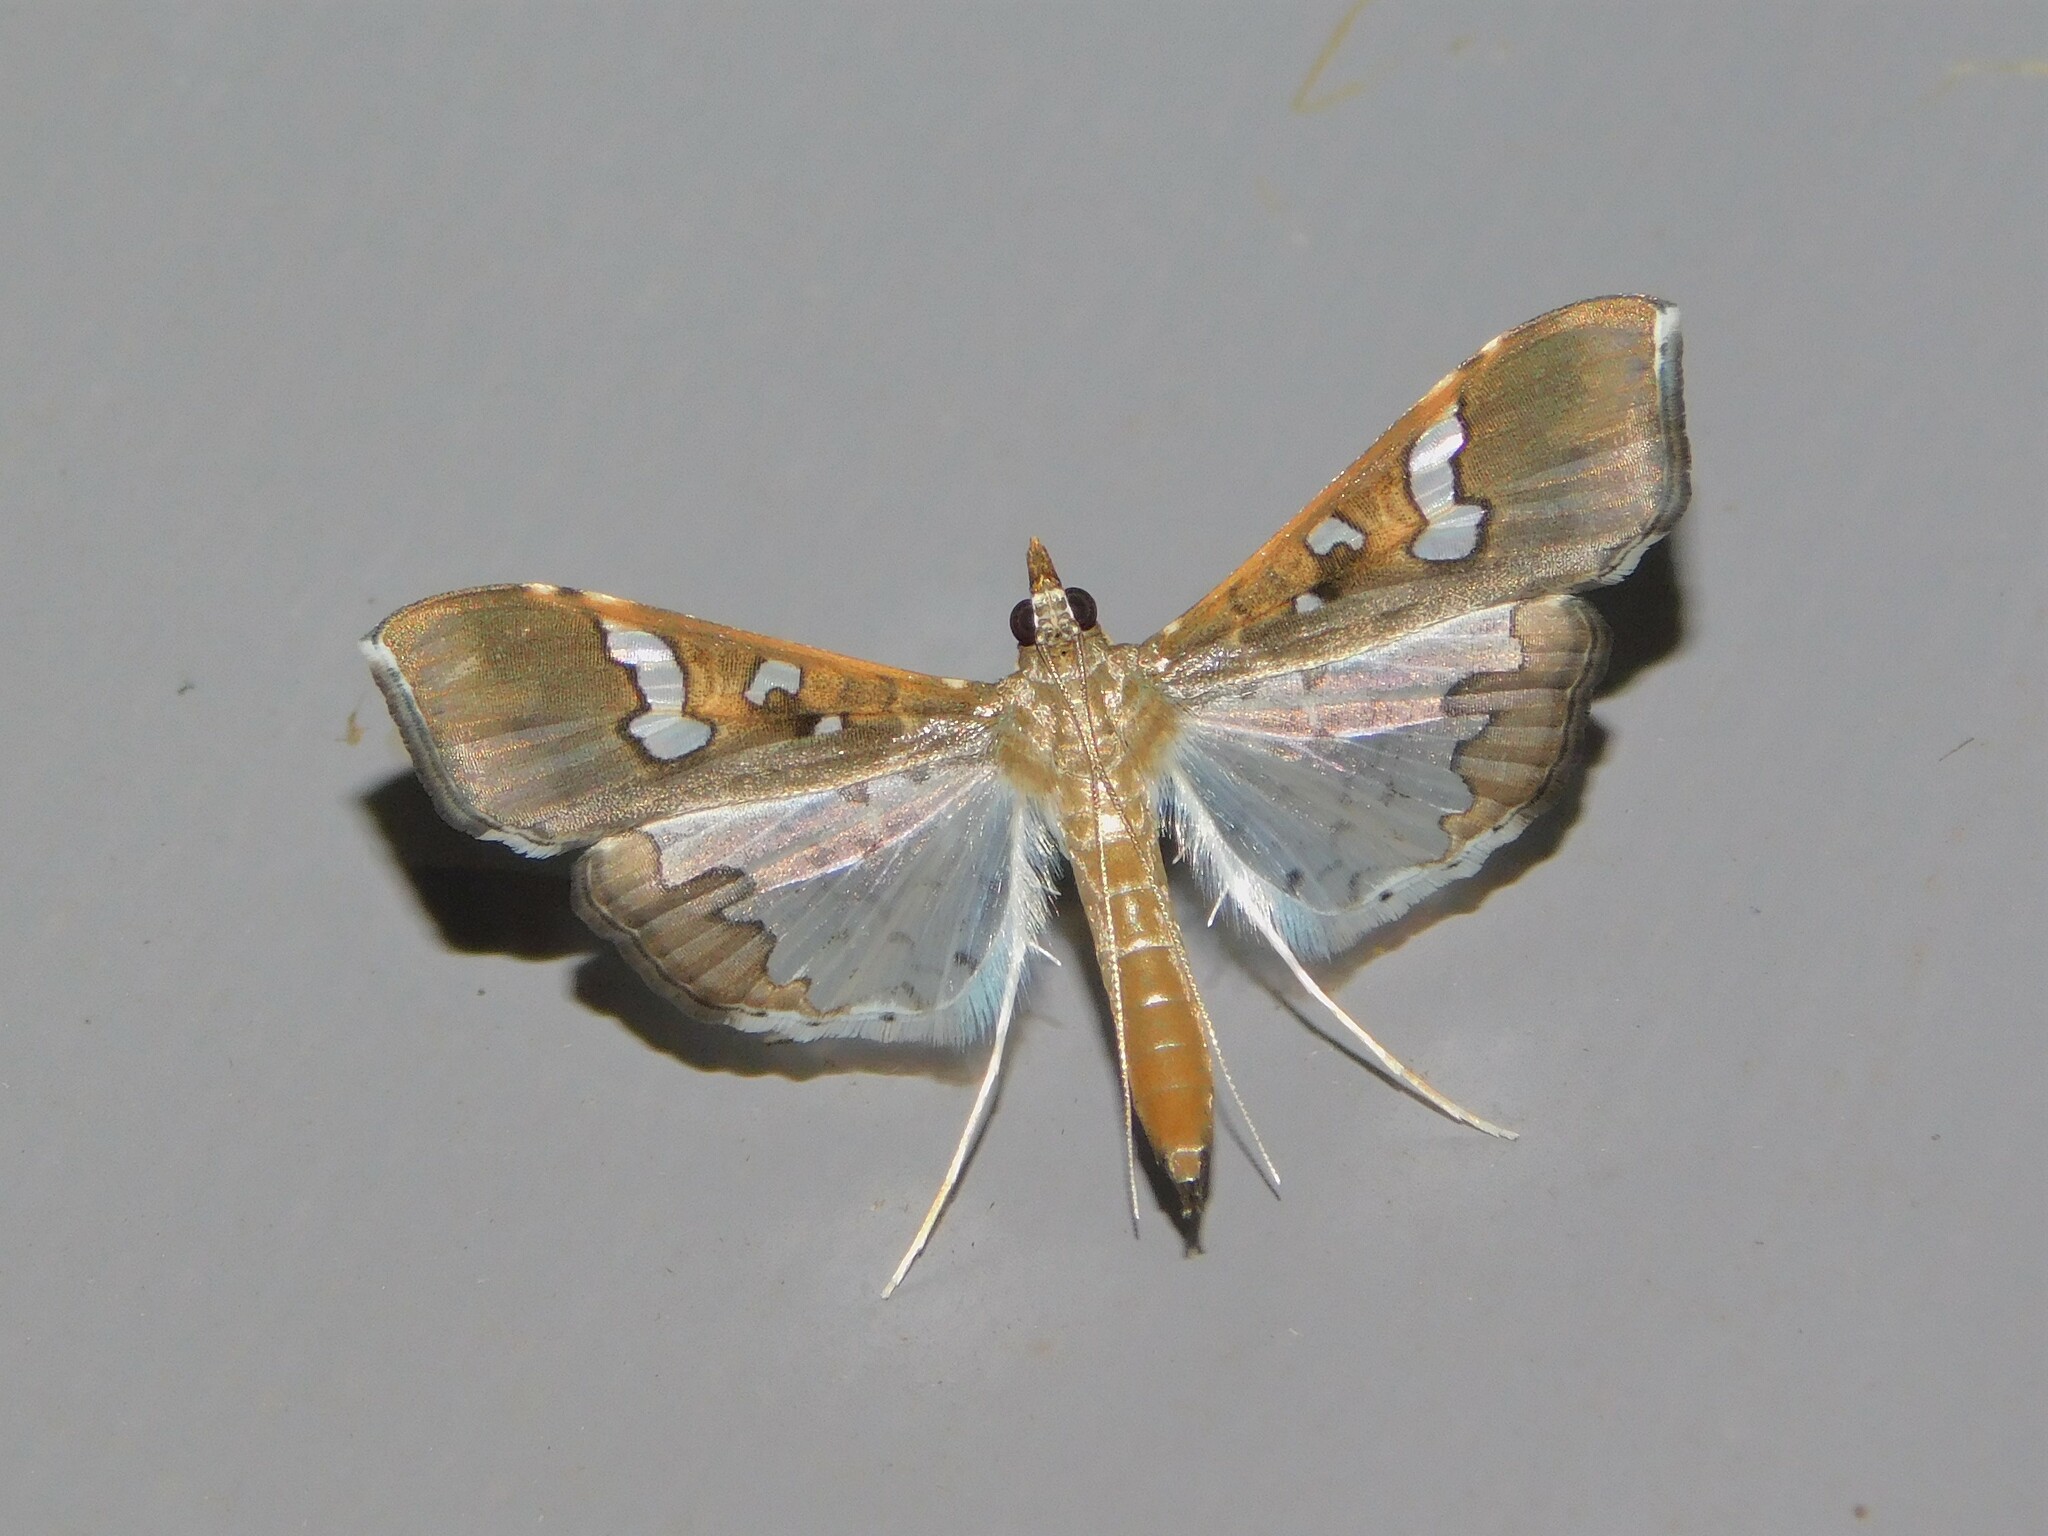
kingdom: Animalia
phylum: Arthropoda
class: Insecta
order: Lepidoptera
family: Crambidae
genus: Maruca
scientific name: Maruca vitrata
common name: Maruca pod borer
